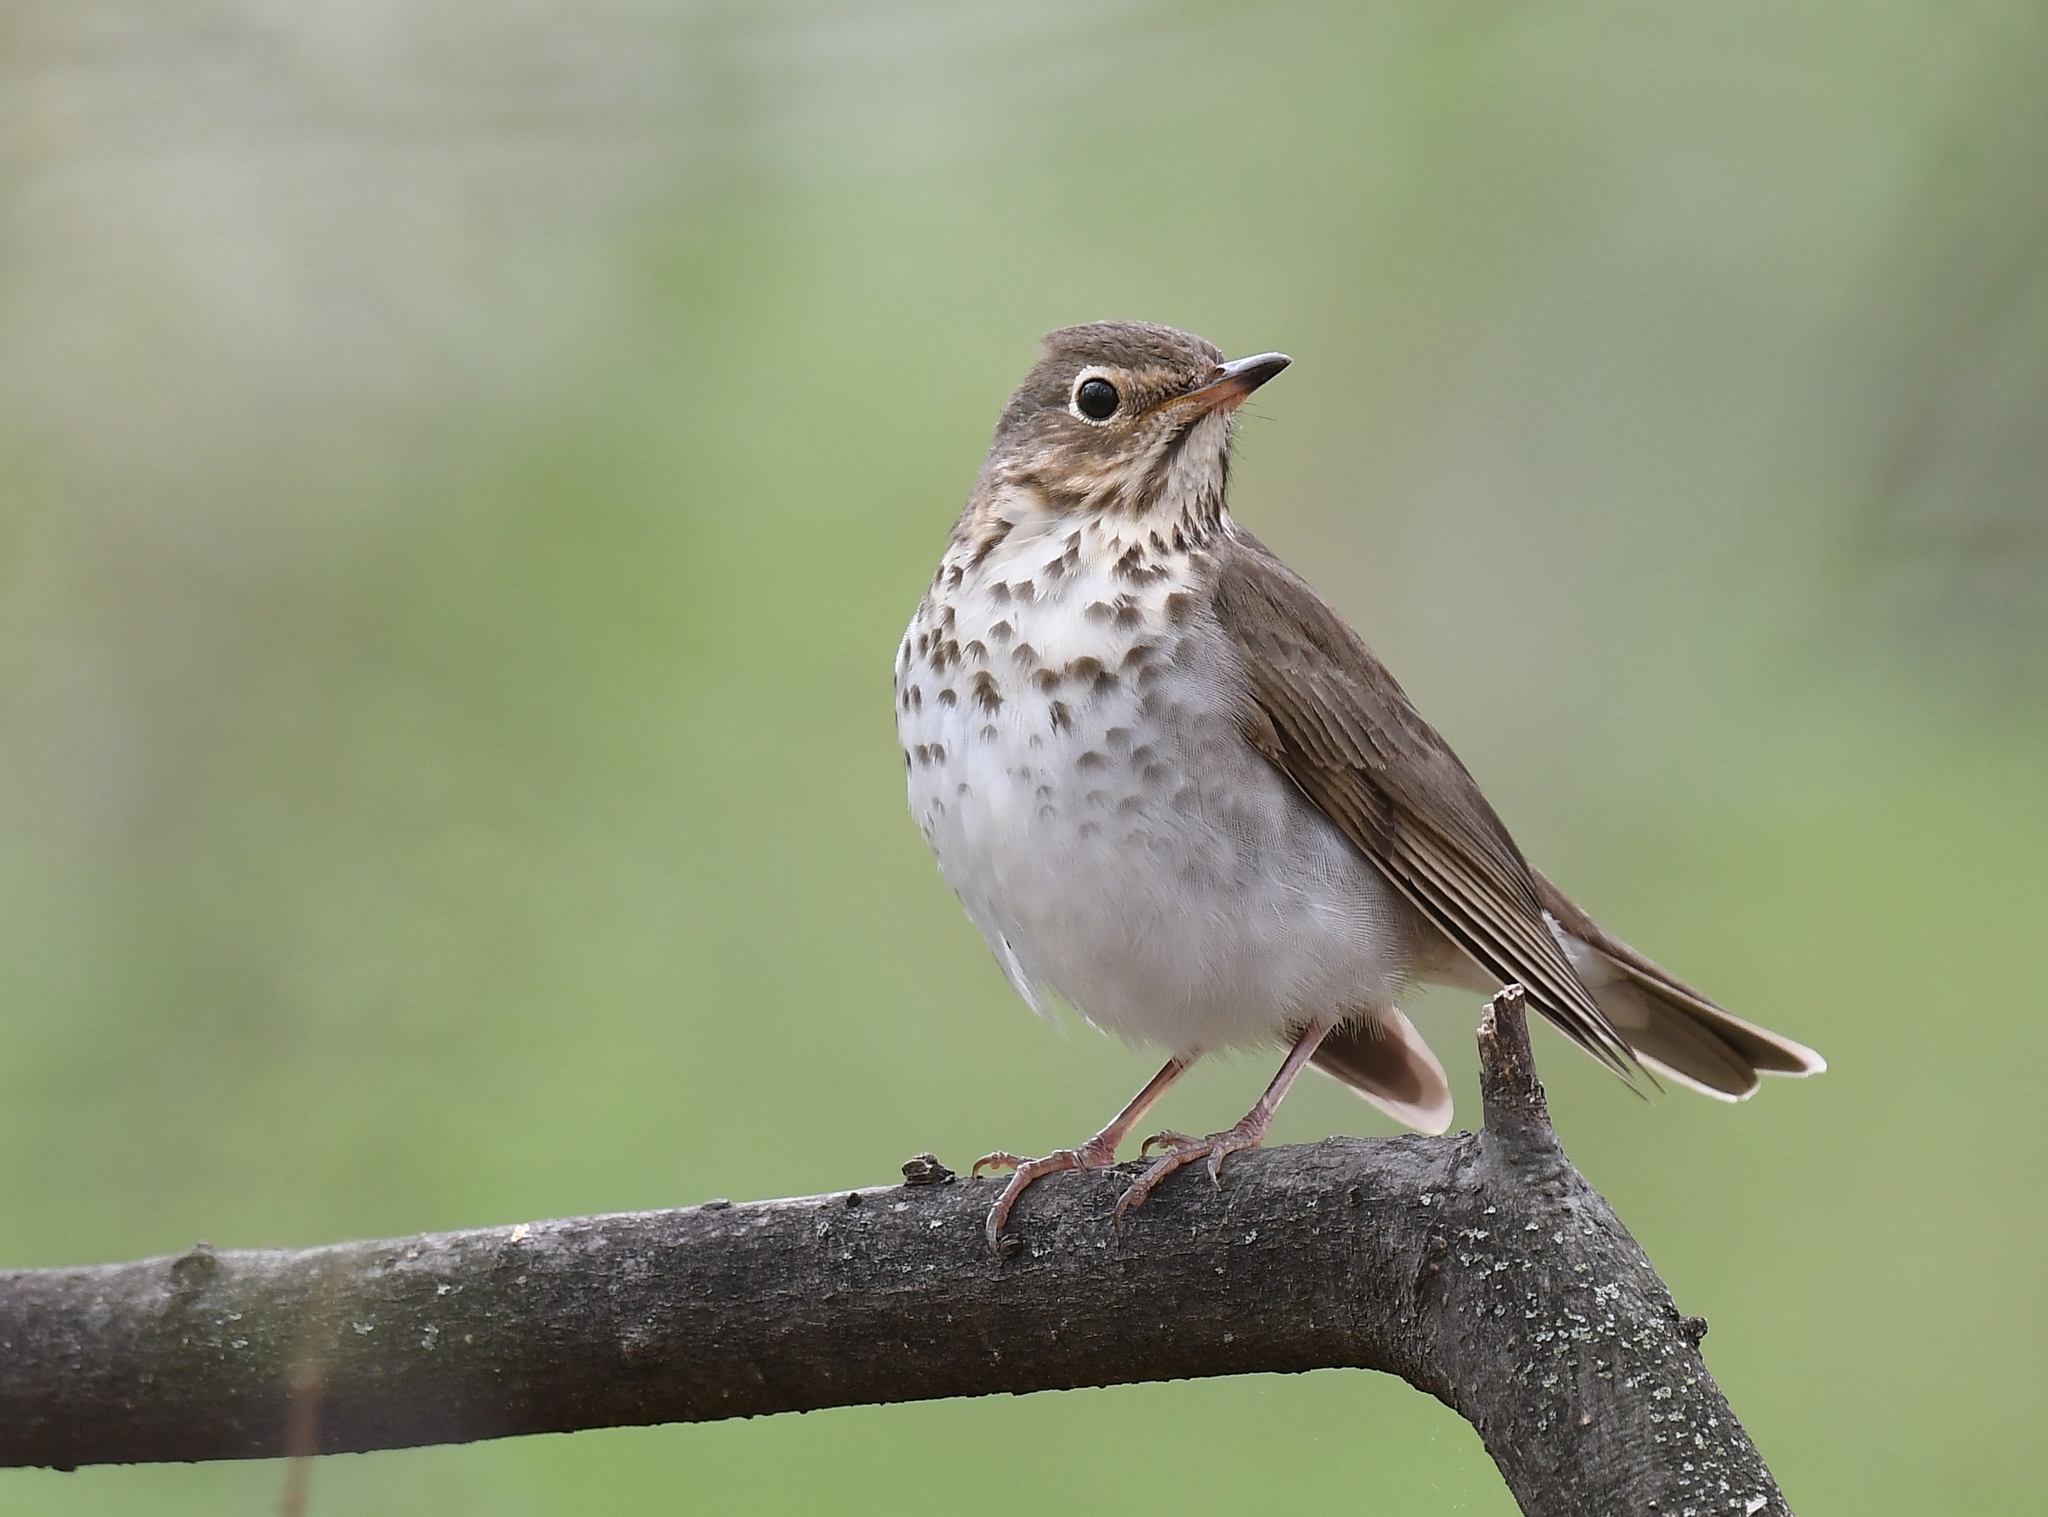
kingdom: Animalia
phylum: Chordata
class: Aves
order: Passeriformes
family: Turdidae
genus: Catharus
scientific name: Catharus ustulatus
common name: Swainson's thrush
